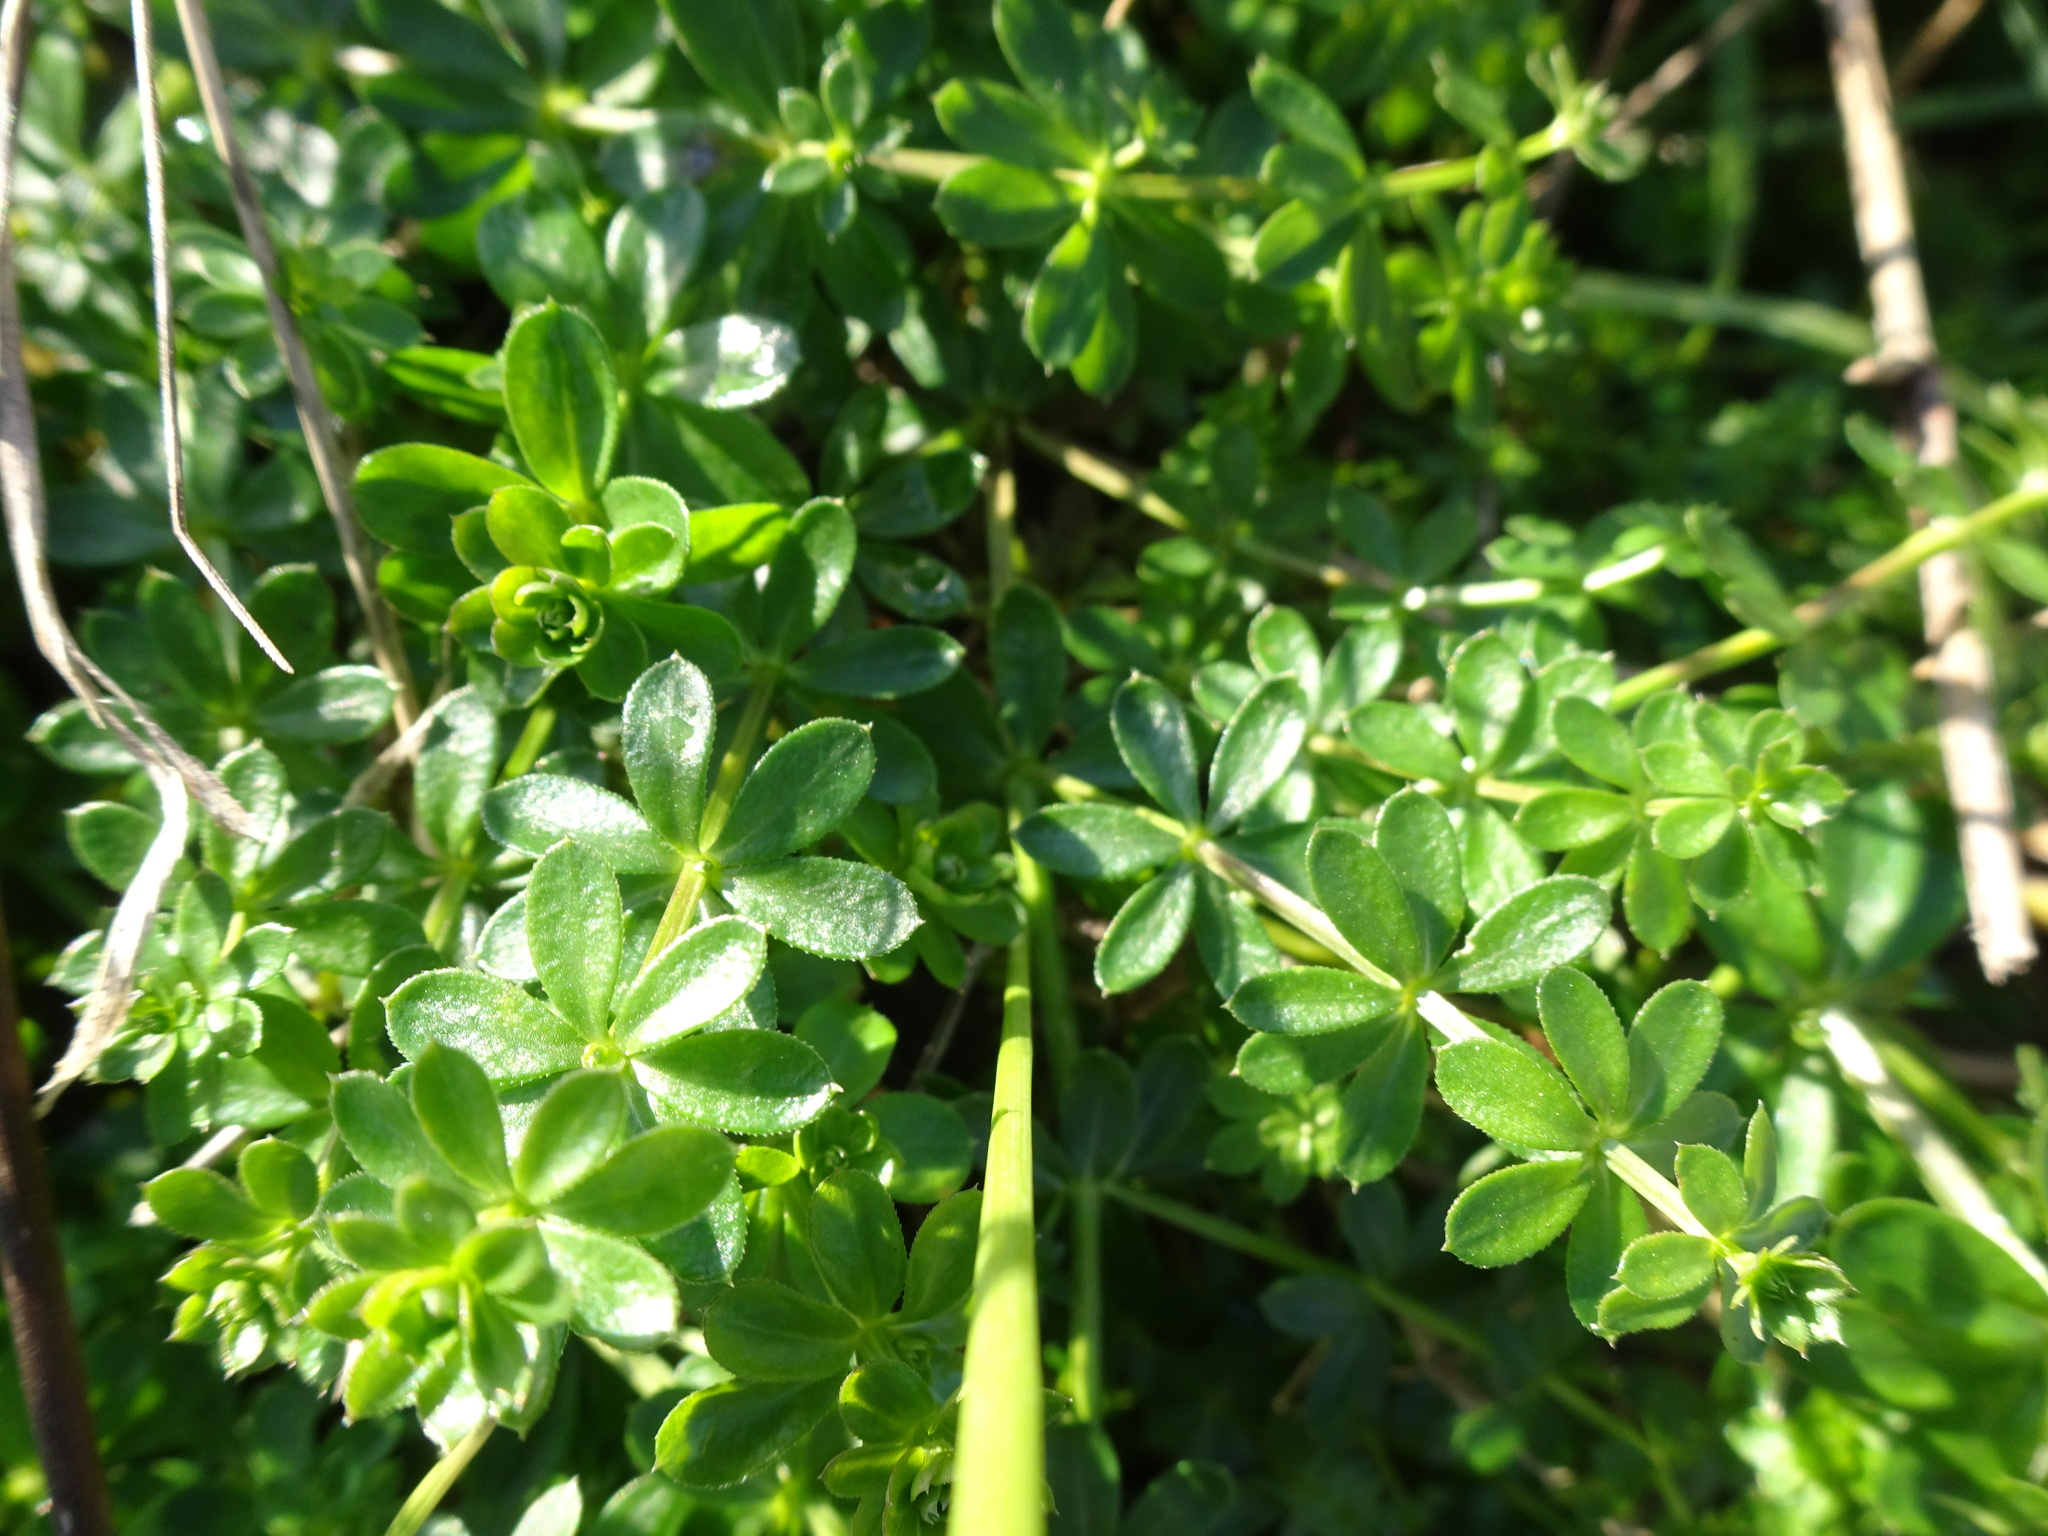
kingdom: Plantae
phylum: Tracheophyta
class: Magnoliopsida
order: Gentianales
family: Rubiaceae
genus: Galium
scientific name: Galium album
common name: White bedstraw
